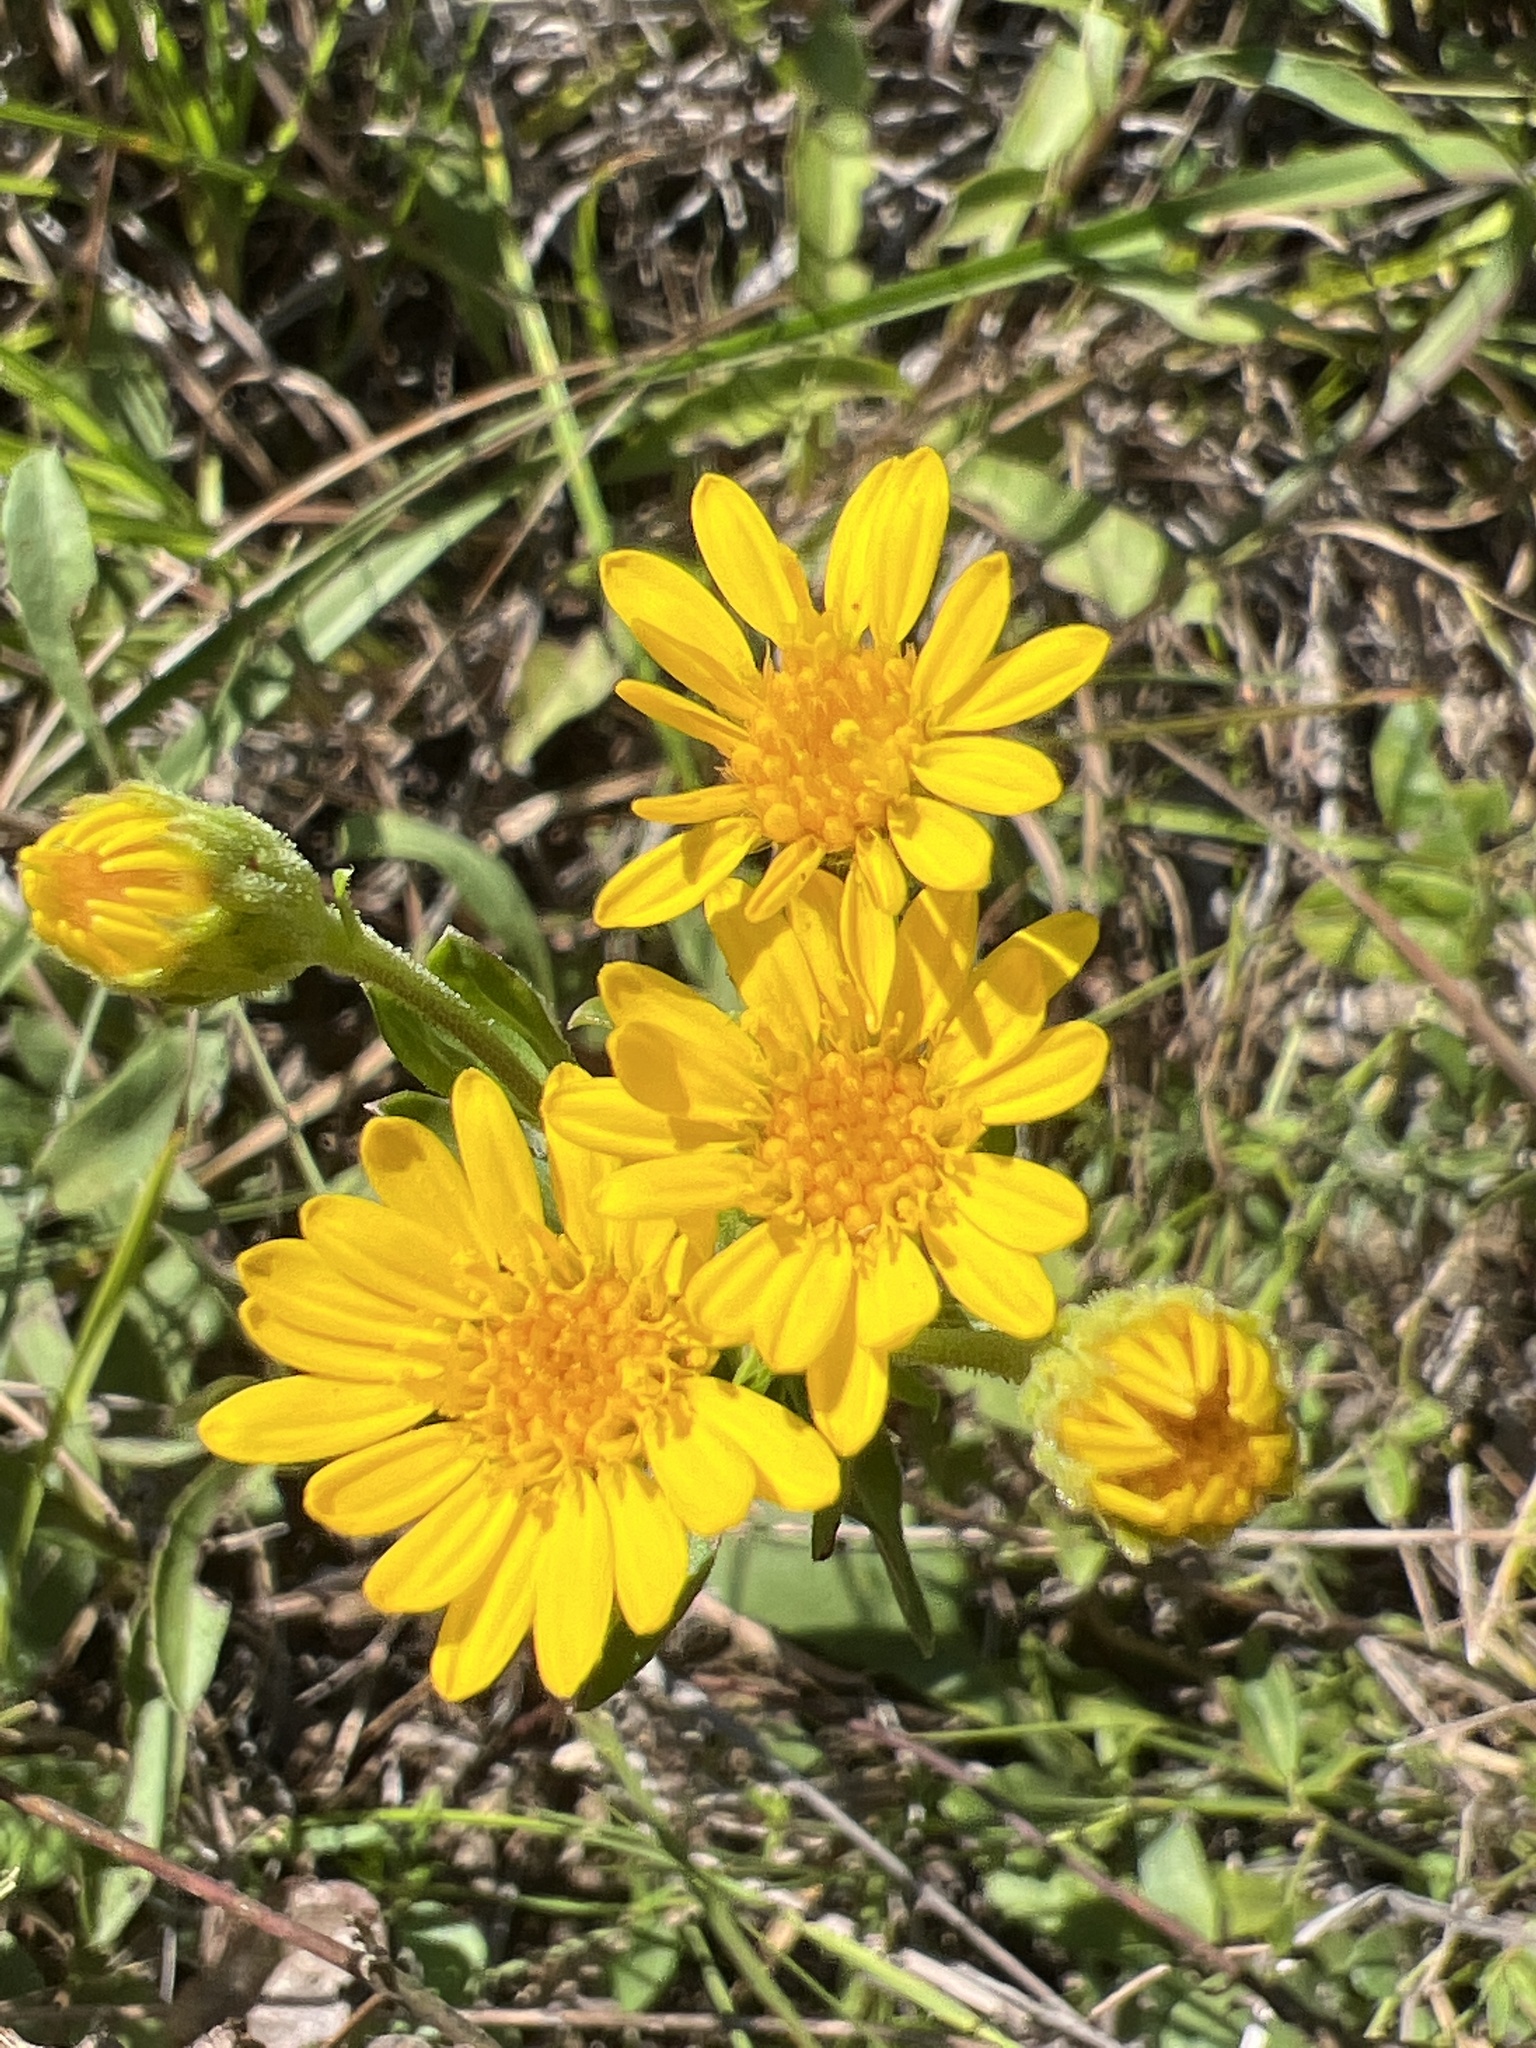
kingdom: Plantae
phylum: Tracheophyta
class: Magnoliopsida
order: Asterales
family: Asteraceae
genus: Chrysopsis
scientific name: Chrysopsis mariana
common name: Maryland golden-aster
